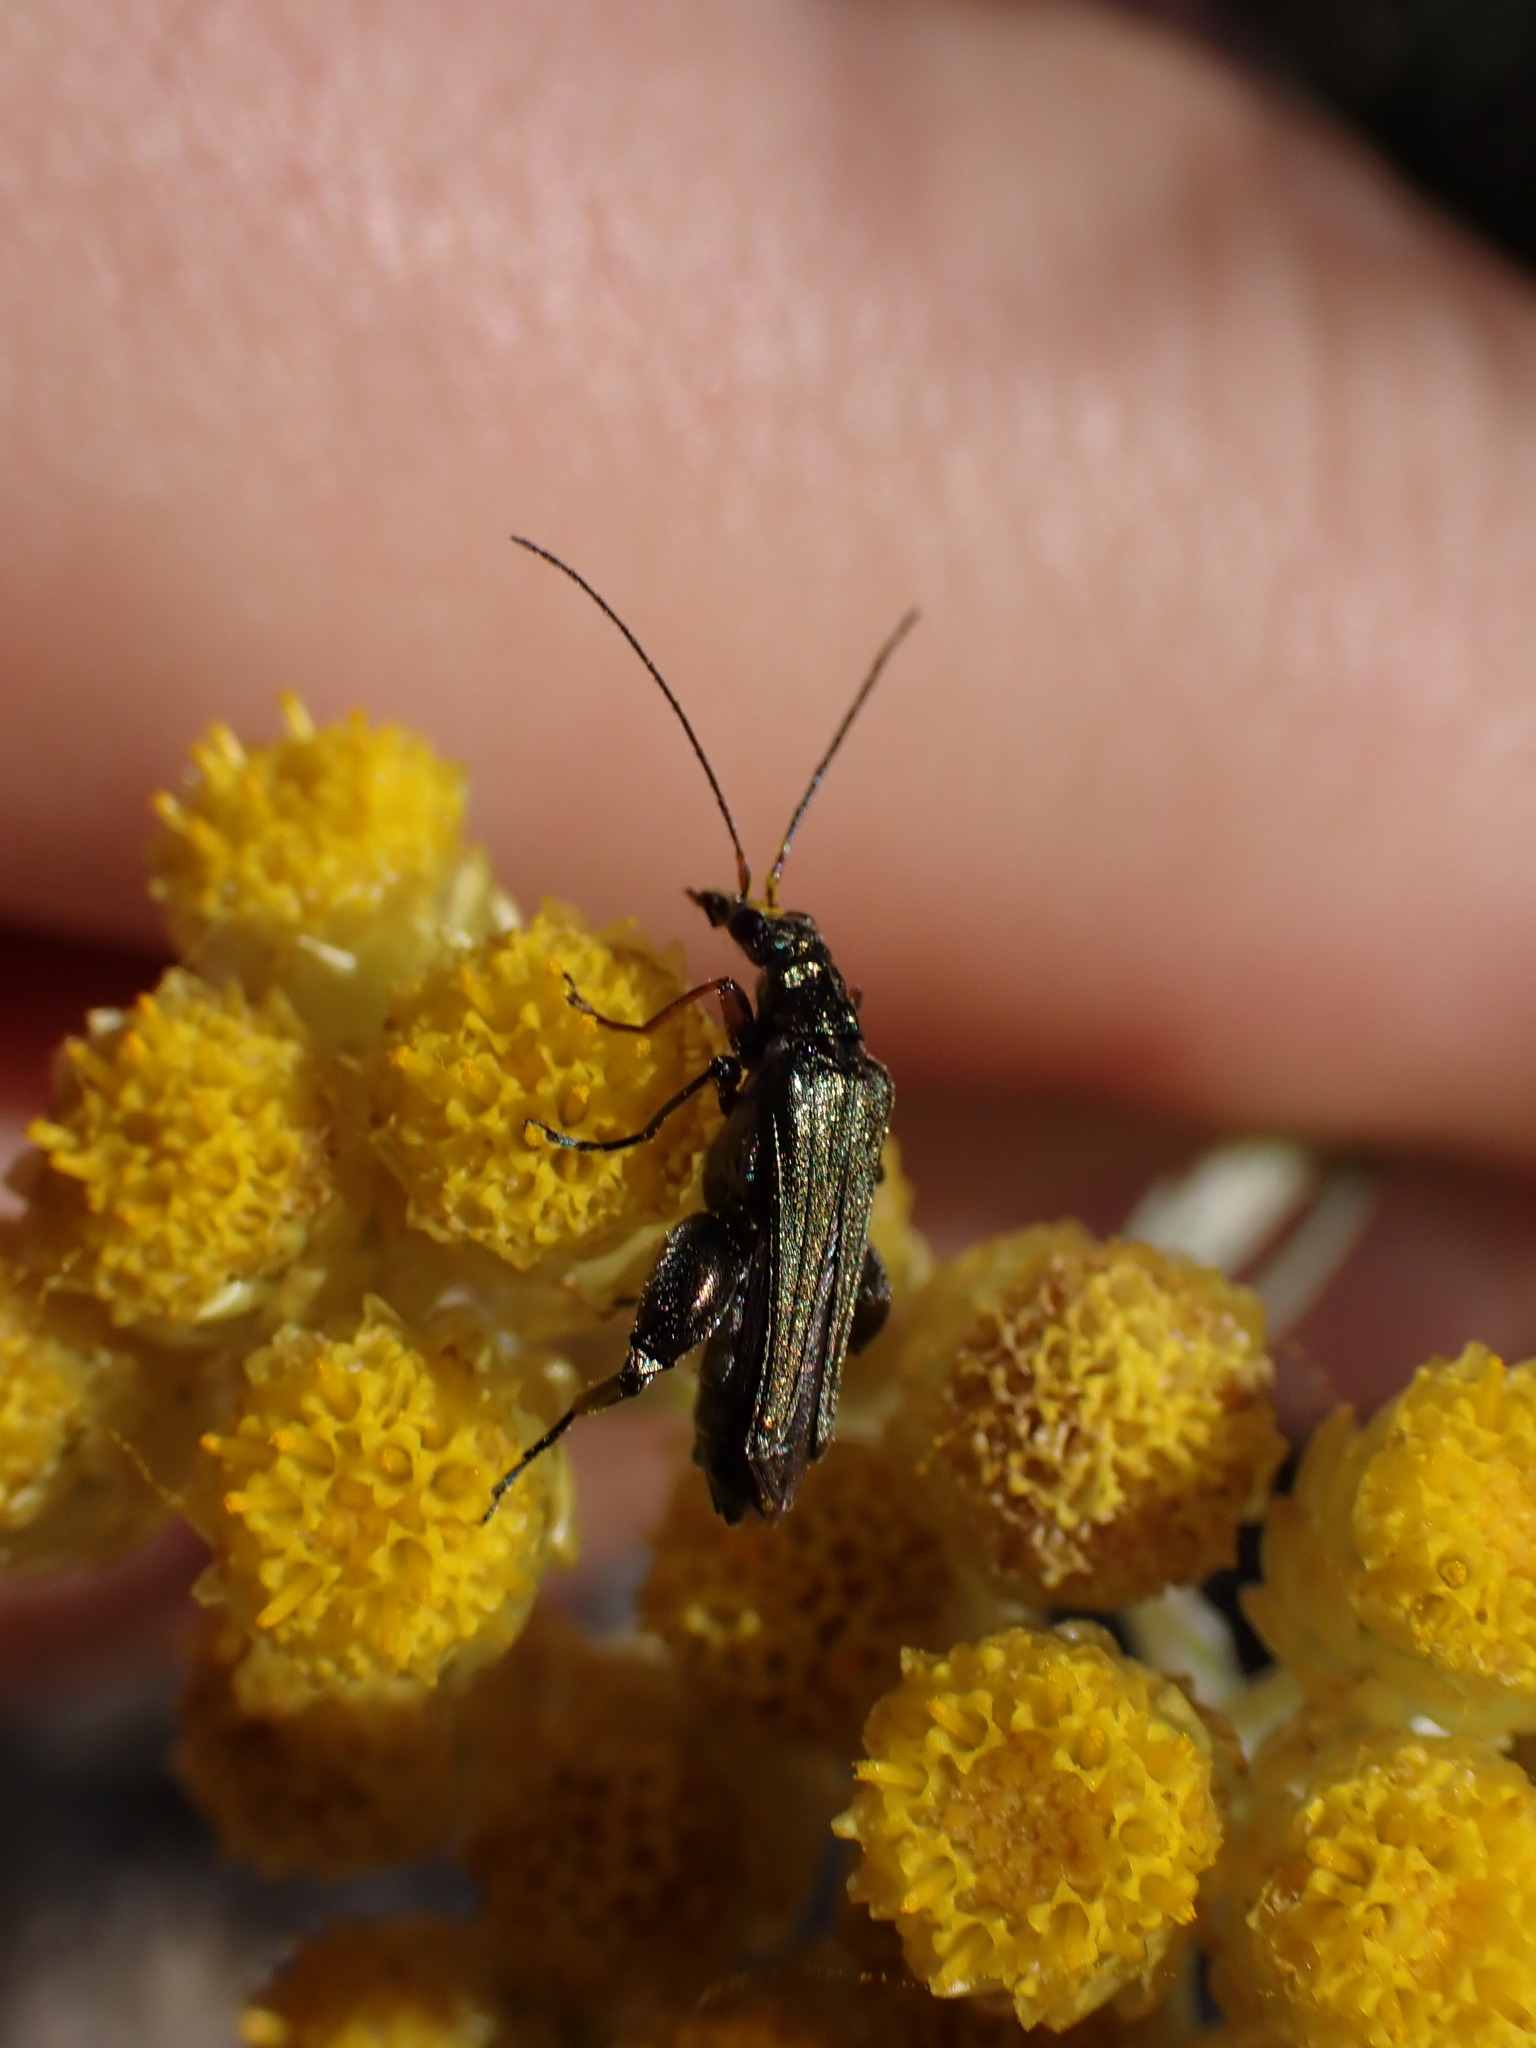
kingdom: Animalia
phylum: Arthropoda
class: Insecta
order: Coleoptera
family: Oedemeridae
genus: Oedemera
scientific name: Oedemera flavipes
